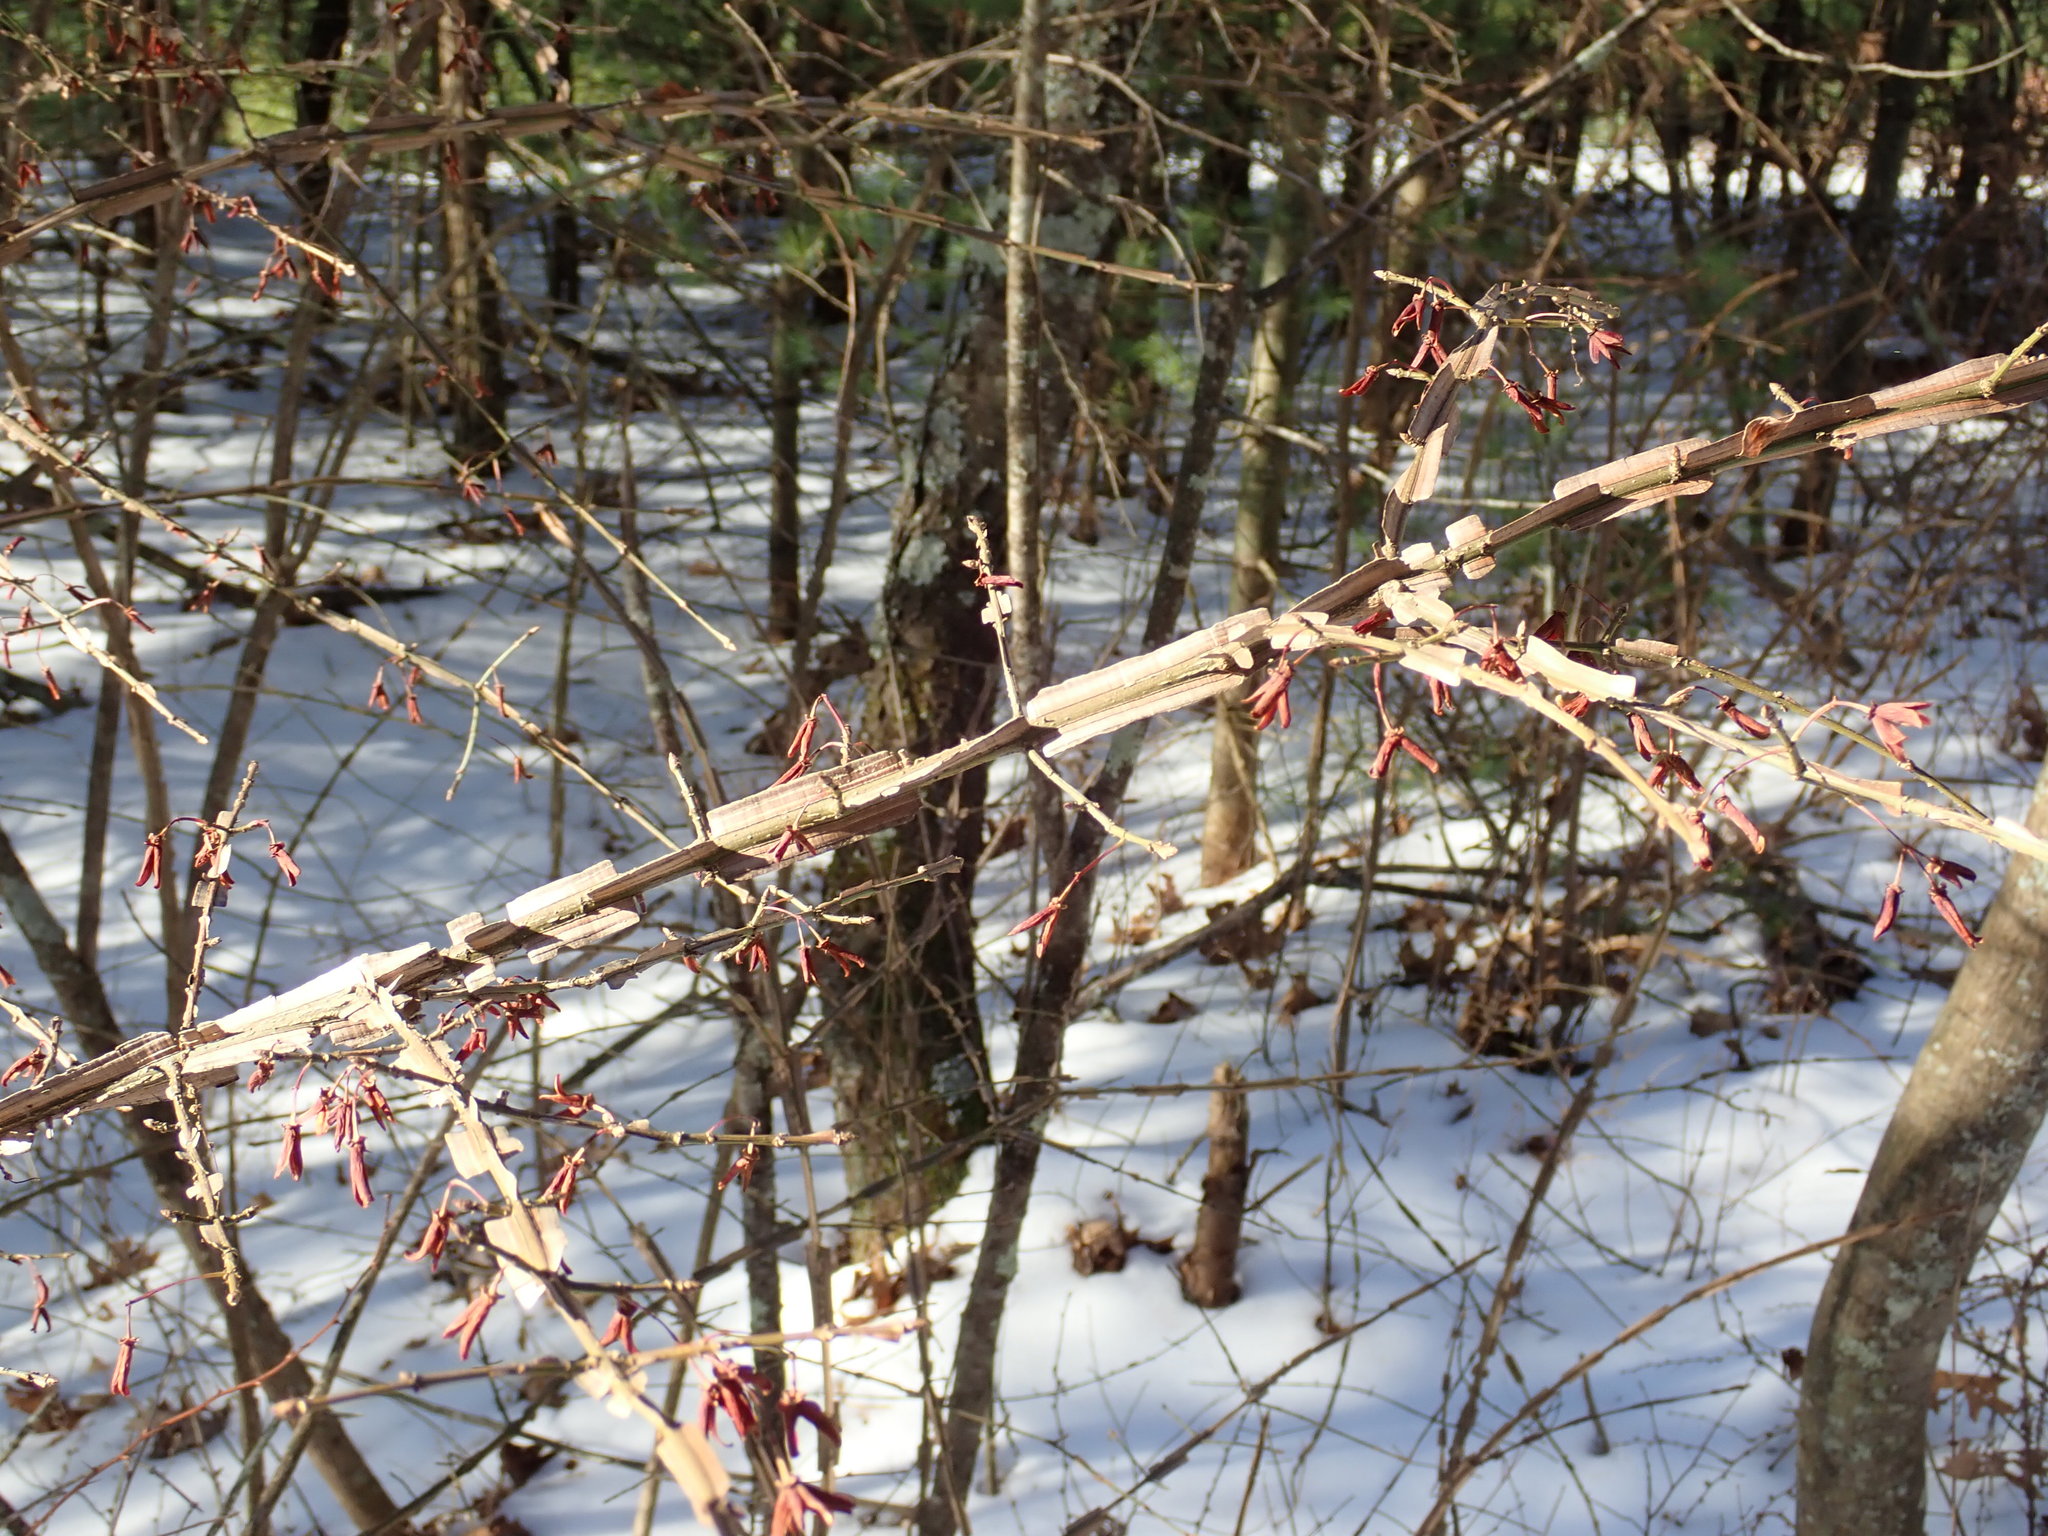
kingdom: Plantae
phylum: Tracheophyta
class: Magnoliopsida
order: Celastrales
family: Celastraceae
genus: Euonymus
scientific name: Euonymus alatus
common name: Winged euonymus
